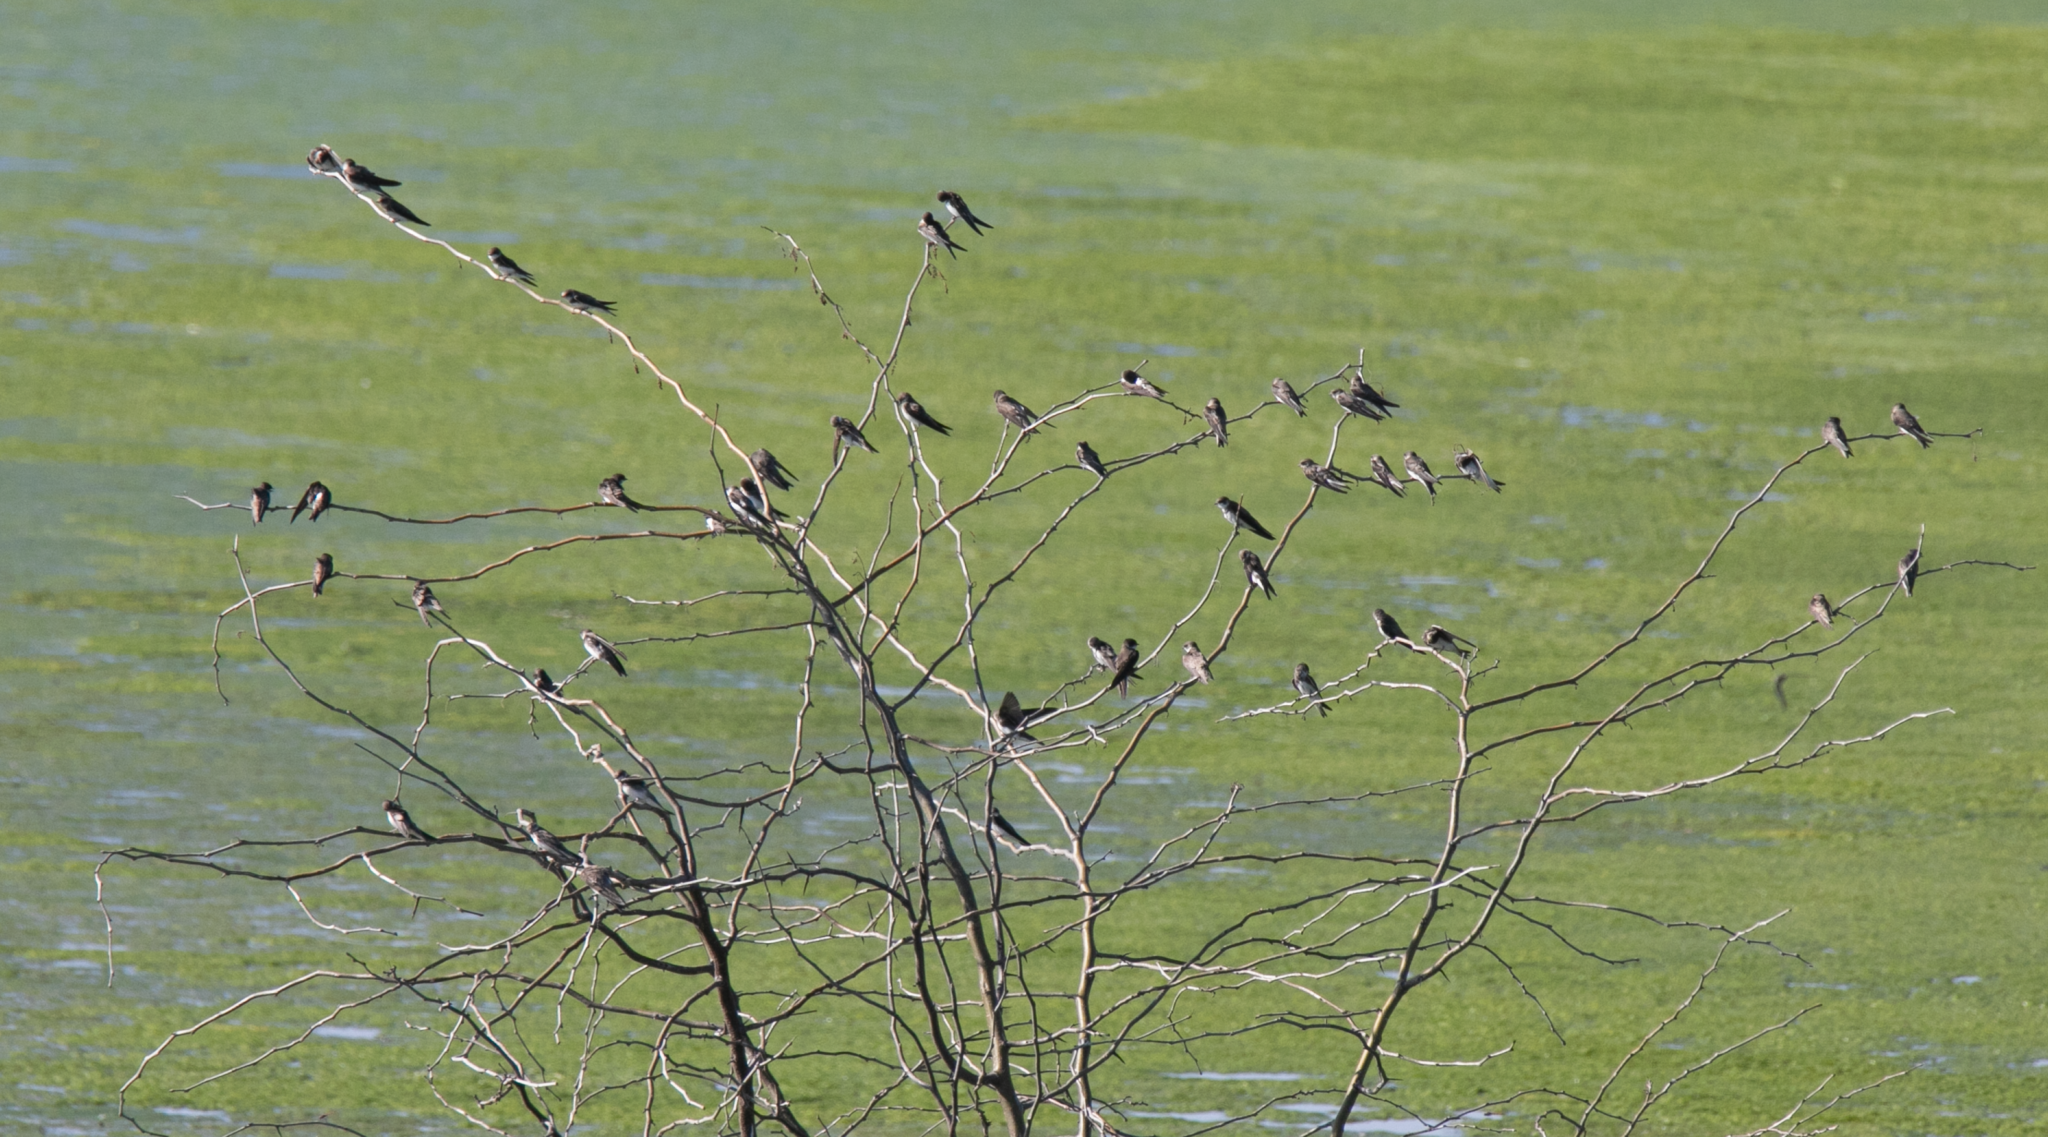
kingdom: Animalia
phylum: Chordata
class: Aves
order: Passeriformes
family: Hirundinidae
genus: Riparia
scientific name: Riparia riparia
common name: Sand martin
